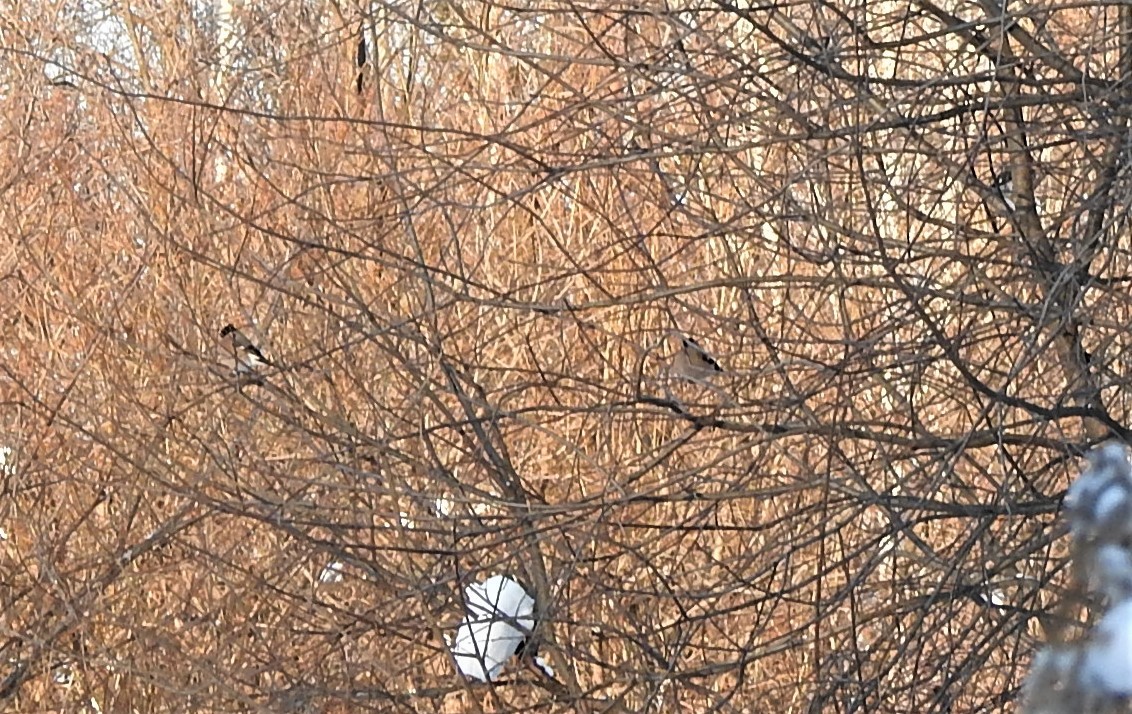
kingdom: Animalia
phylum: Chordata
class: Aves
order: Passeriformes
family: Fringillidae
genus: Pyrrhula
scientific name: Pyrrhula pyrrhula
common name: Eurasian bullfinch
